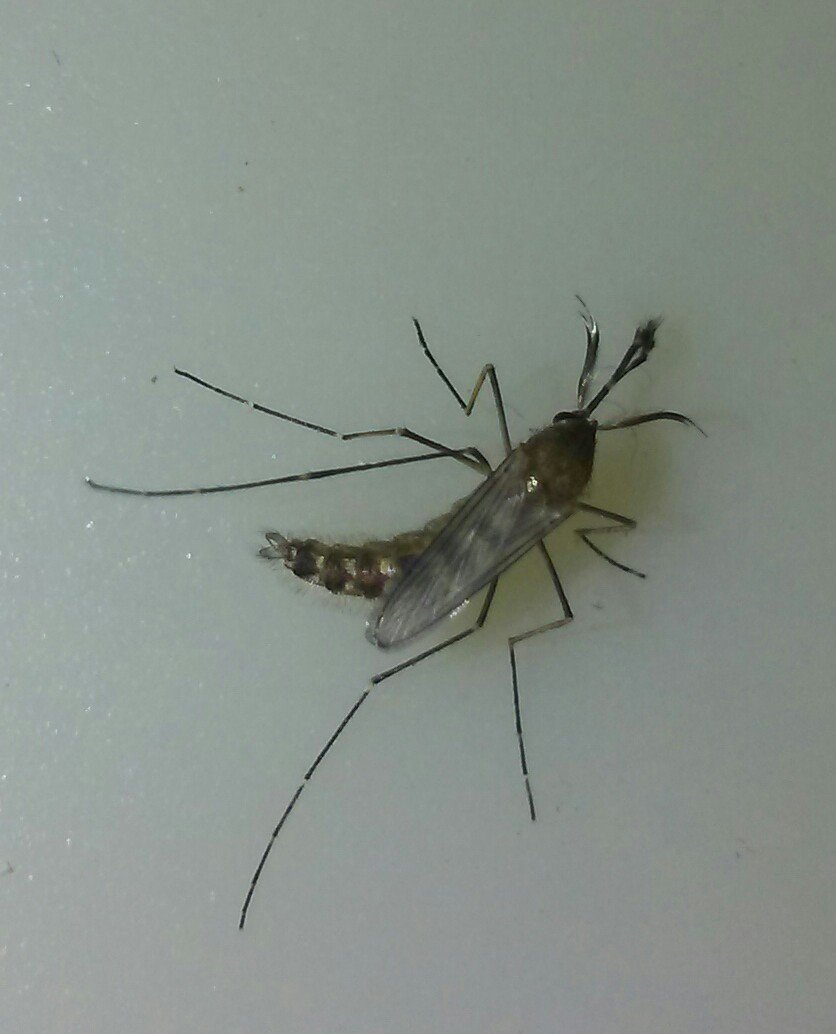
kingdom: Animalia
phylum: Arthropoda
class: Insecta
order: Diptera
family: Culicidae
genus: Aedes
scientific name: Aedes vexans
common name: Inland floodwater mosquito
